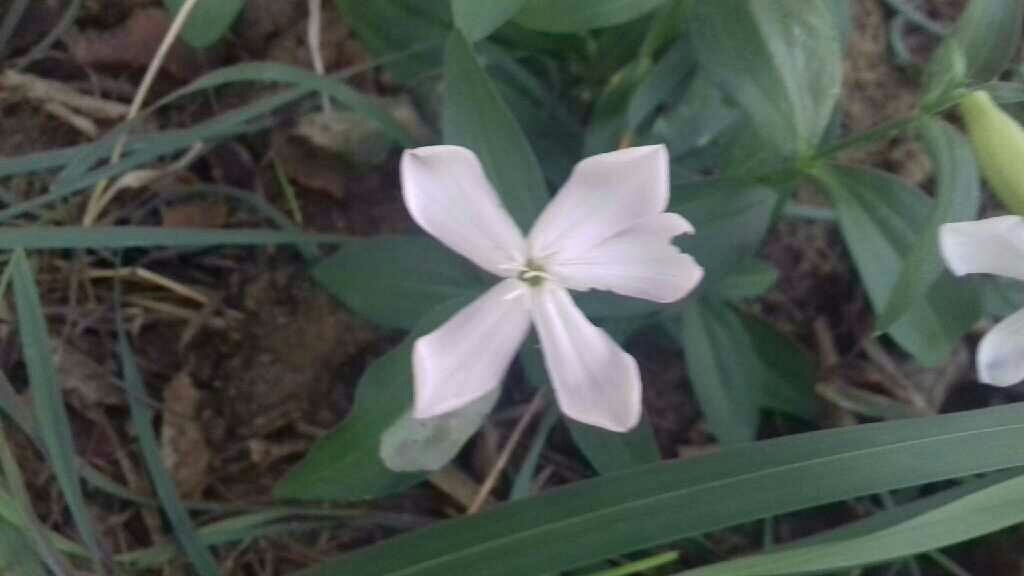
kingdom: Plantae
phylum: Tracheophyta
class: Magnoliopsida
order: Caryophyllales
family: Caryophyllaceae
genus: Saponaria
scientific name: Saponaria officinalis
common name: Soapwort
